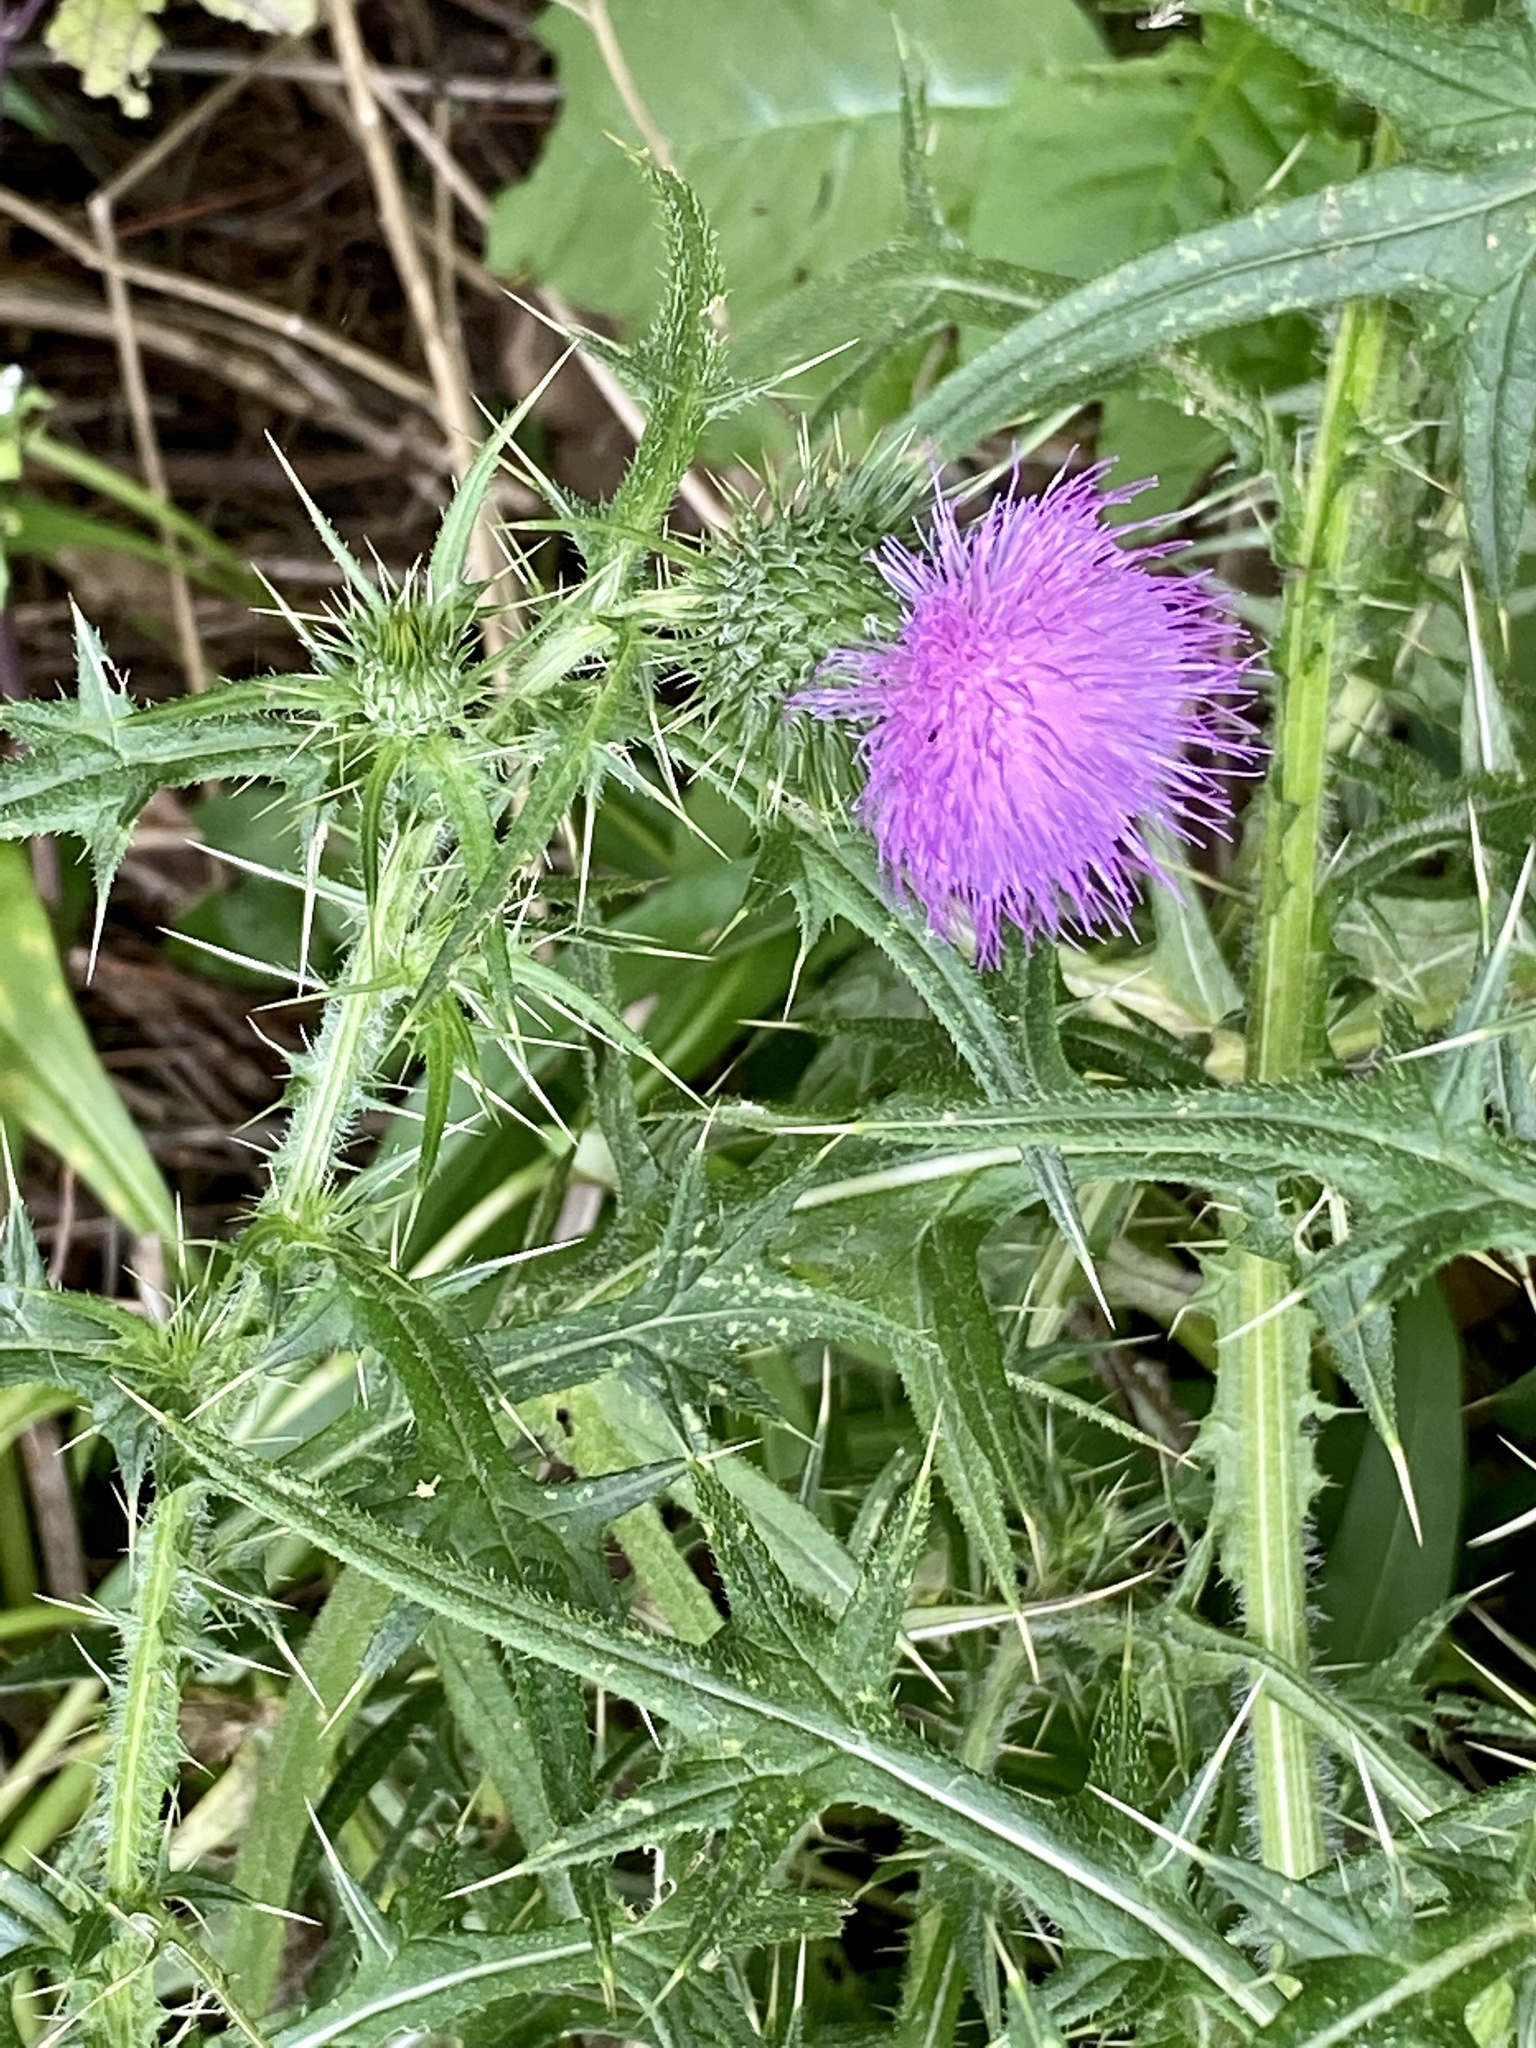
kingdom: Plantae
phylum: Tracheophyta
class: Magnoliopsida
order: Asterales
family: Asteraceae
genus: Cirsium
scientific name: Cirsium vulgare
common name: Bull thistle
